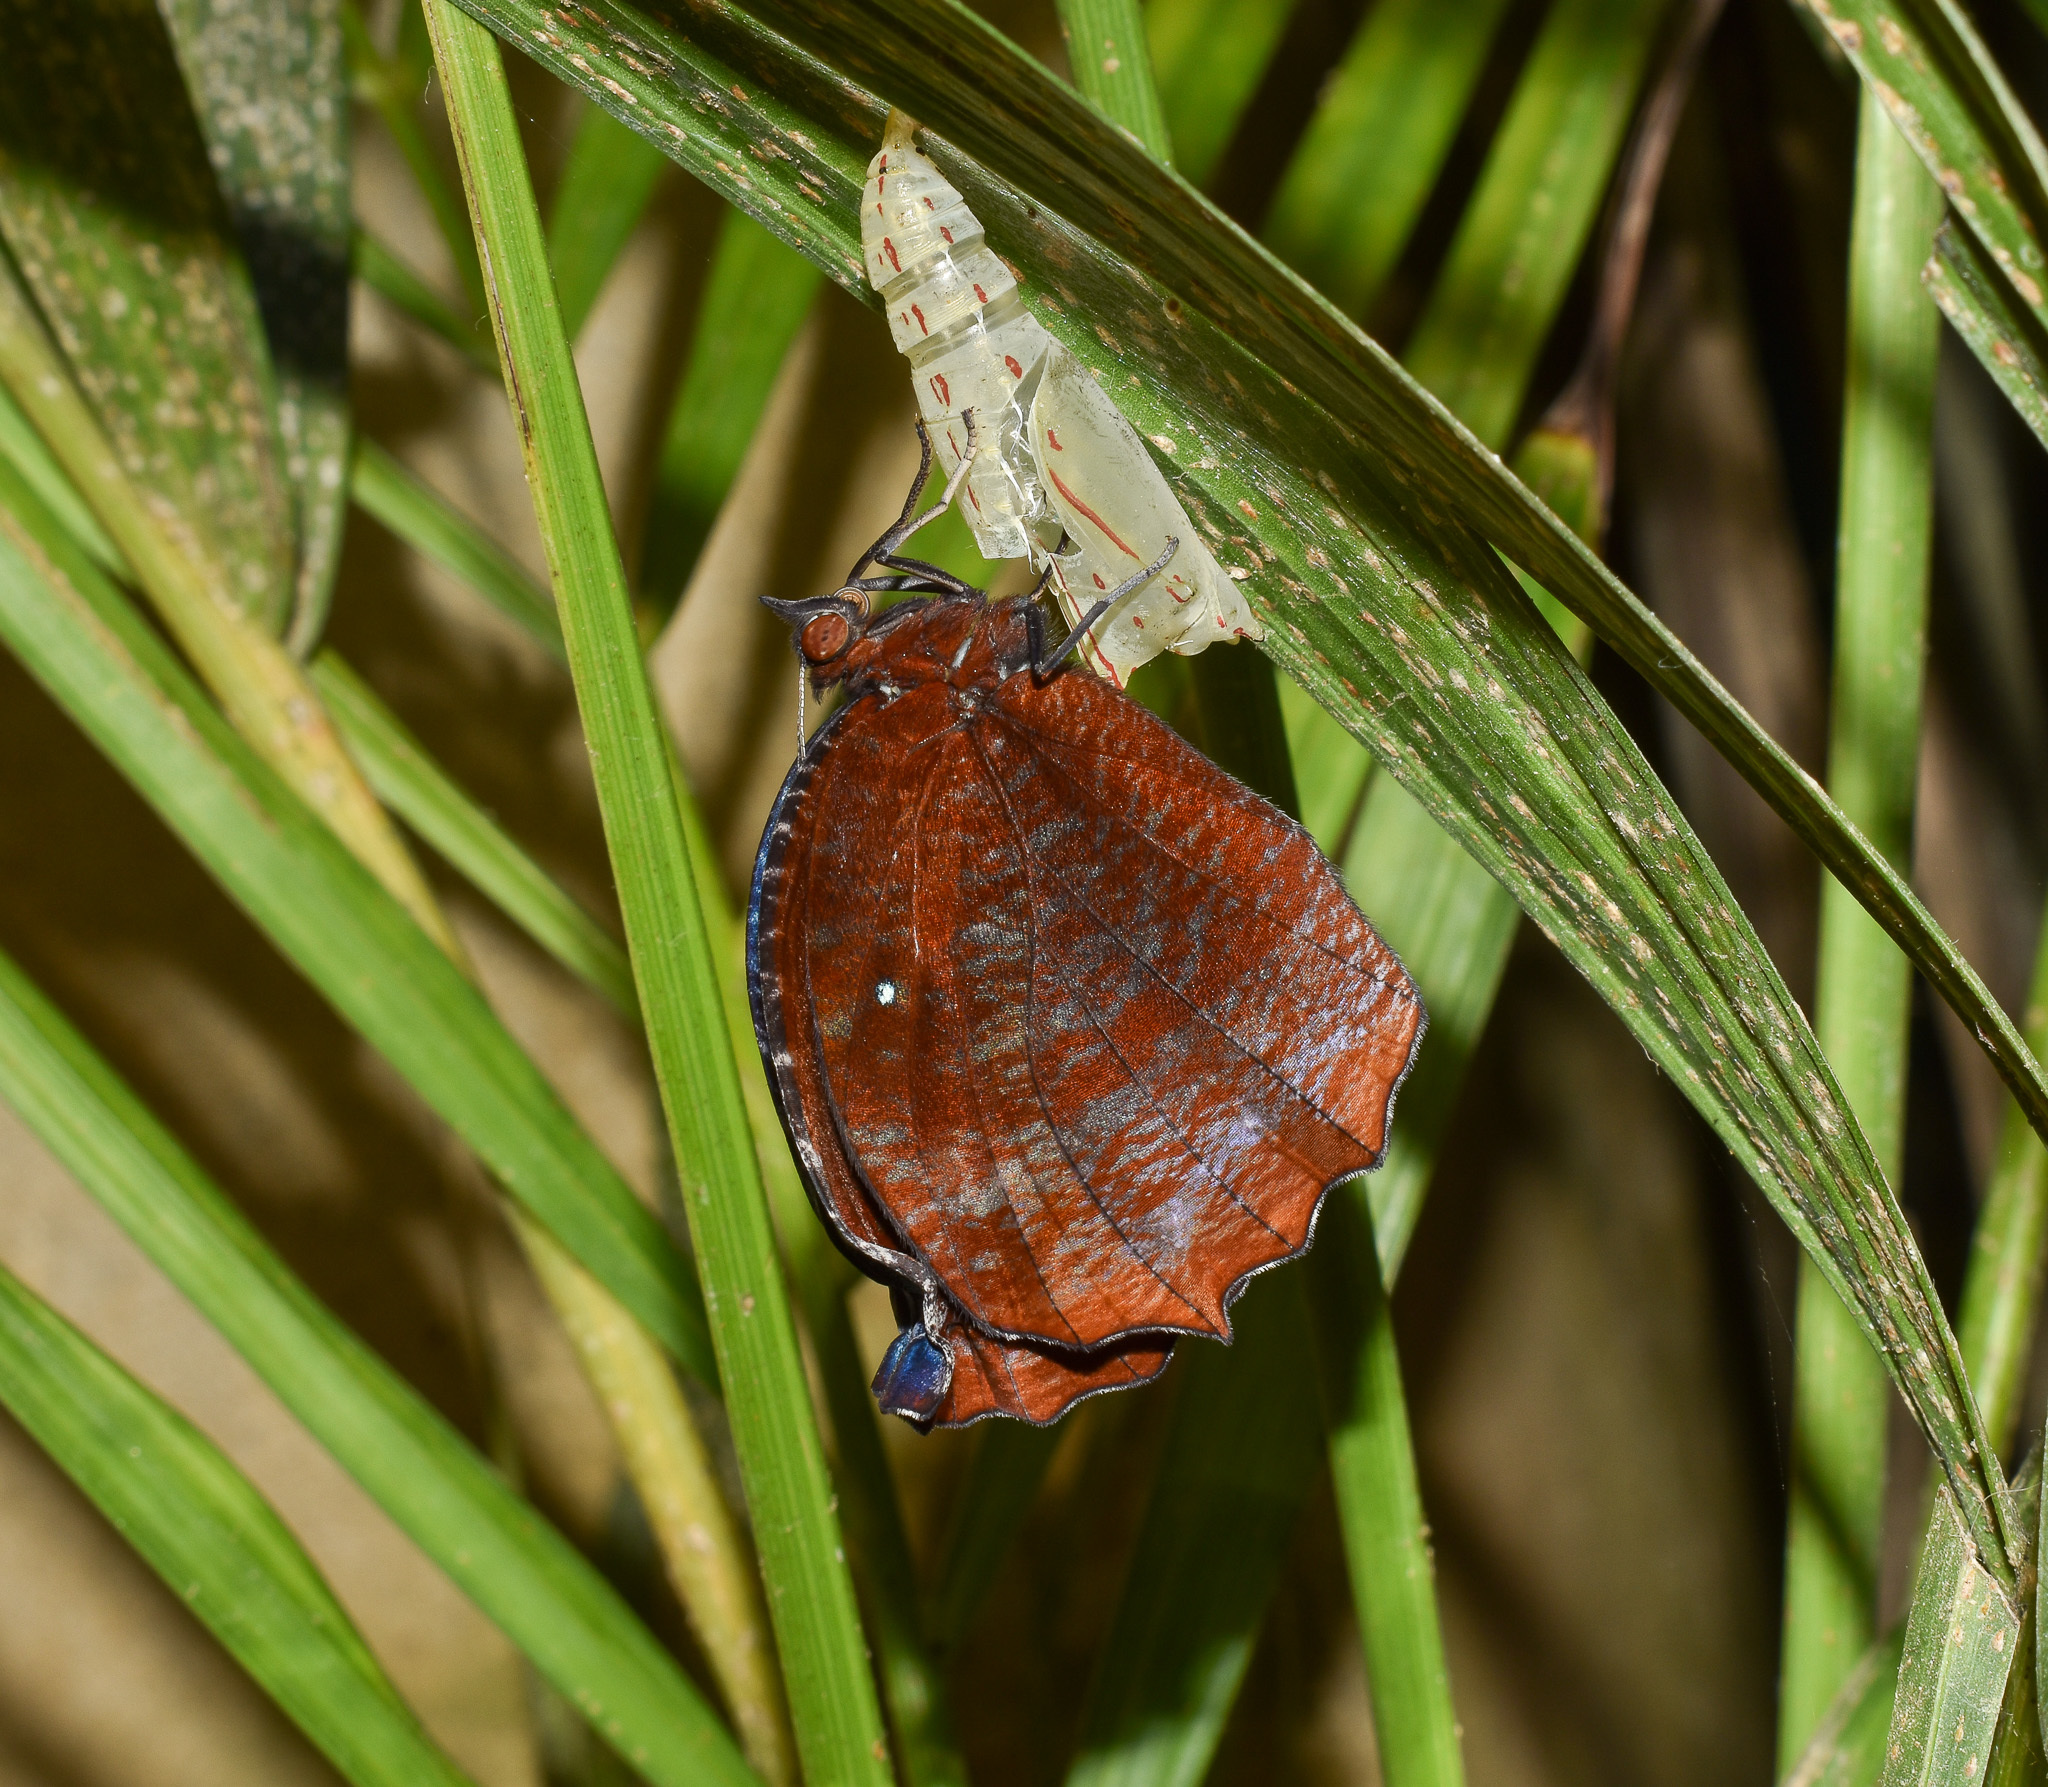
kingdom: Animalia
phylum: Arthropoda
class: Insecta
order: Lepidoptera
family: Nymphalidae
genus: Elymnias
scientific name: Elymnias hypermnestra
